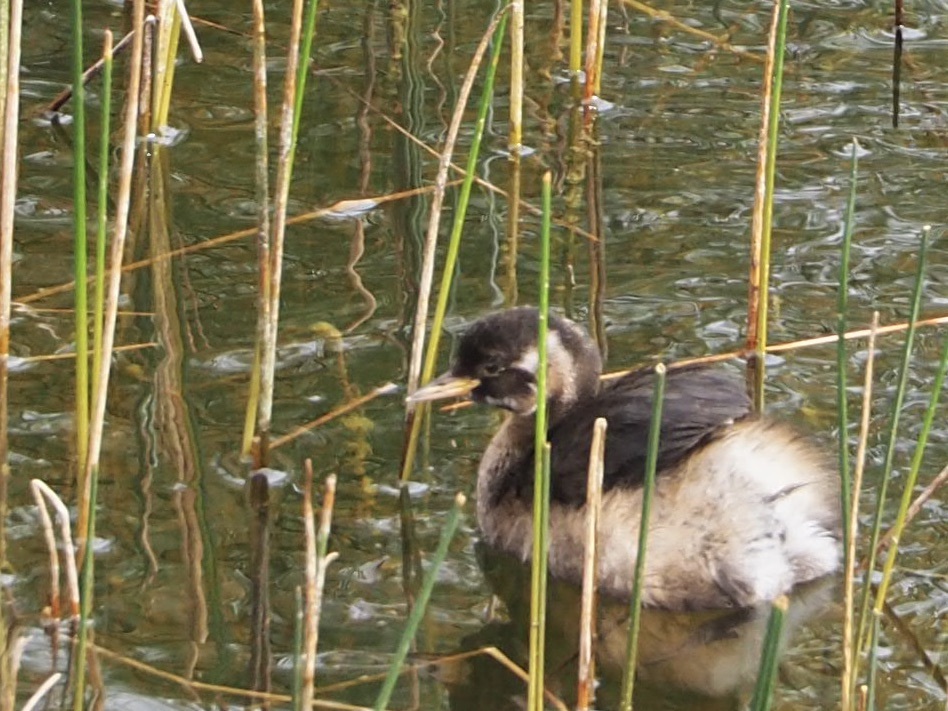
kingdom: Animalia
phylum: Chordata
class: Aves
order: Podicipediformes
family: Podicipedidae
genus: Tachybaptus
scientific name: Tachybaptus ruficollis
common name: Little grebe
